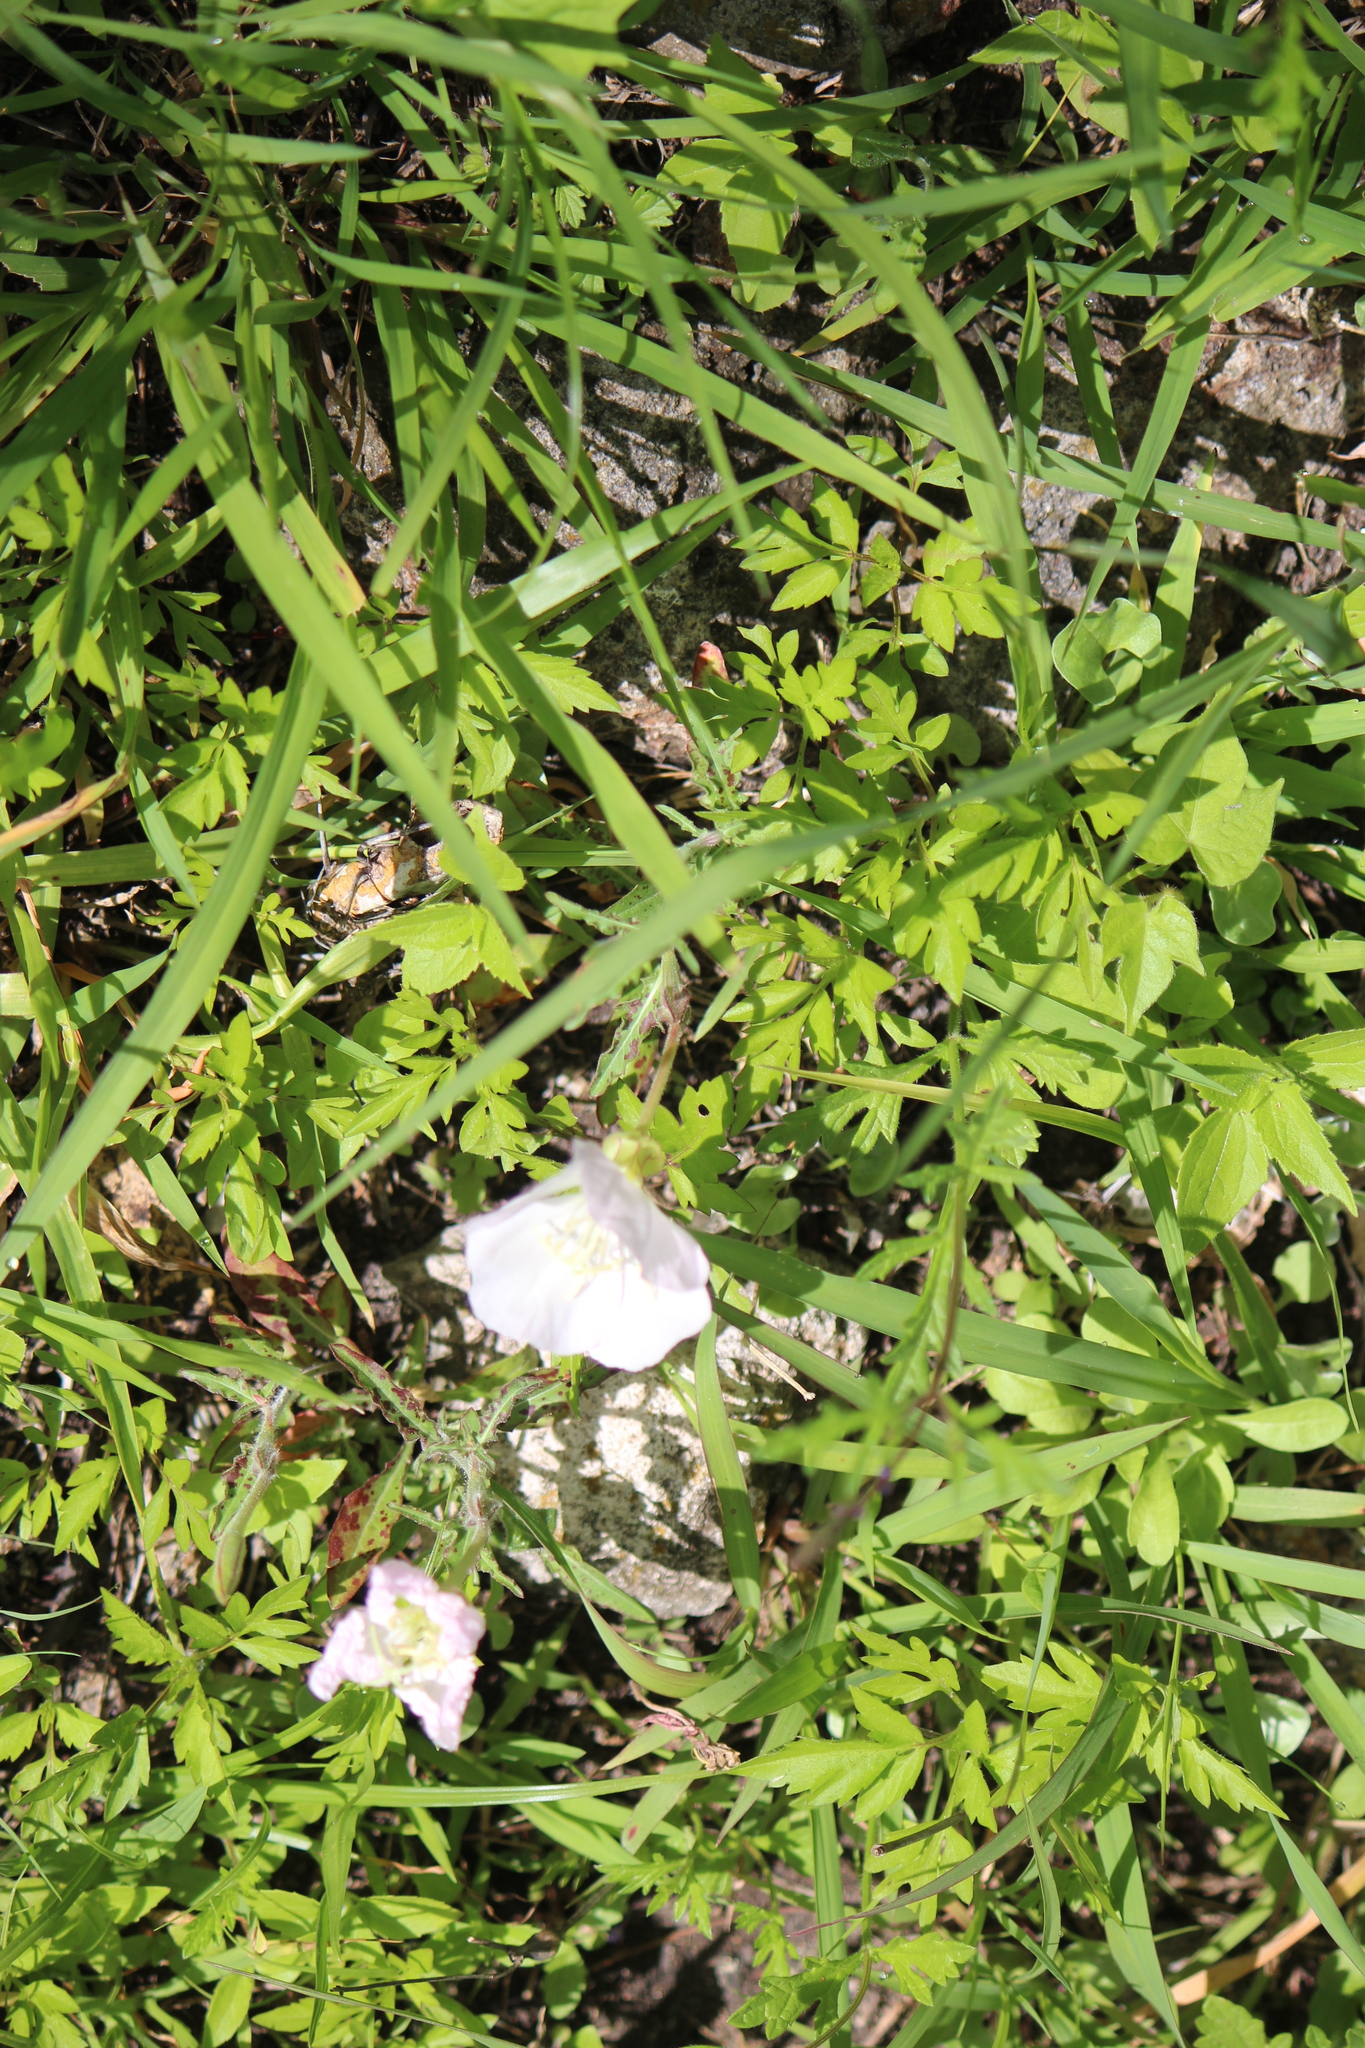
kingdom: Plantae
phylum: Tracheophyta
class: Magnoliopsida
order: Myrtales
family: Onagraceae
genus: Oenothera
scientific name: Oenothera tetraptera
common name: Four-wing evening-primrose
